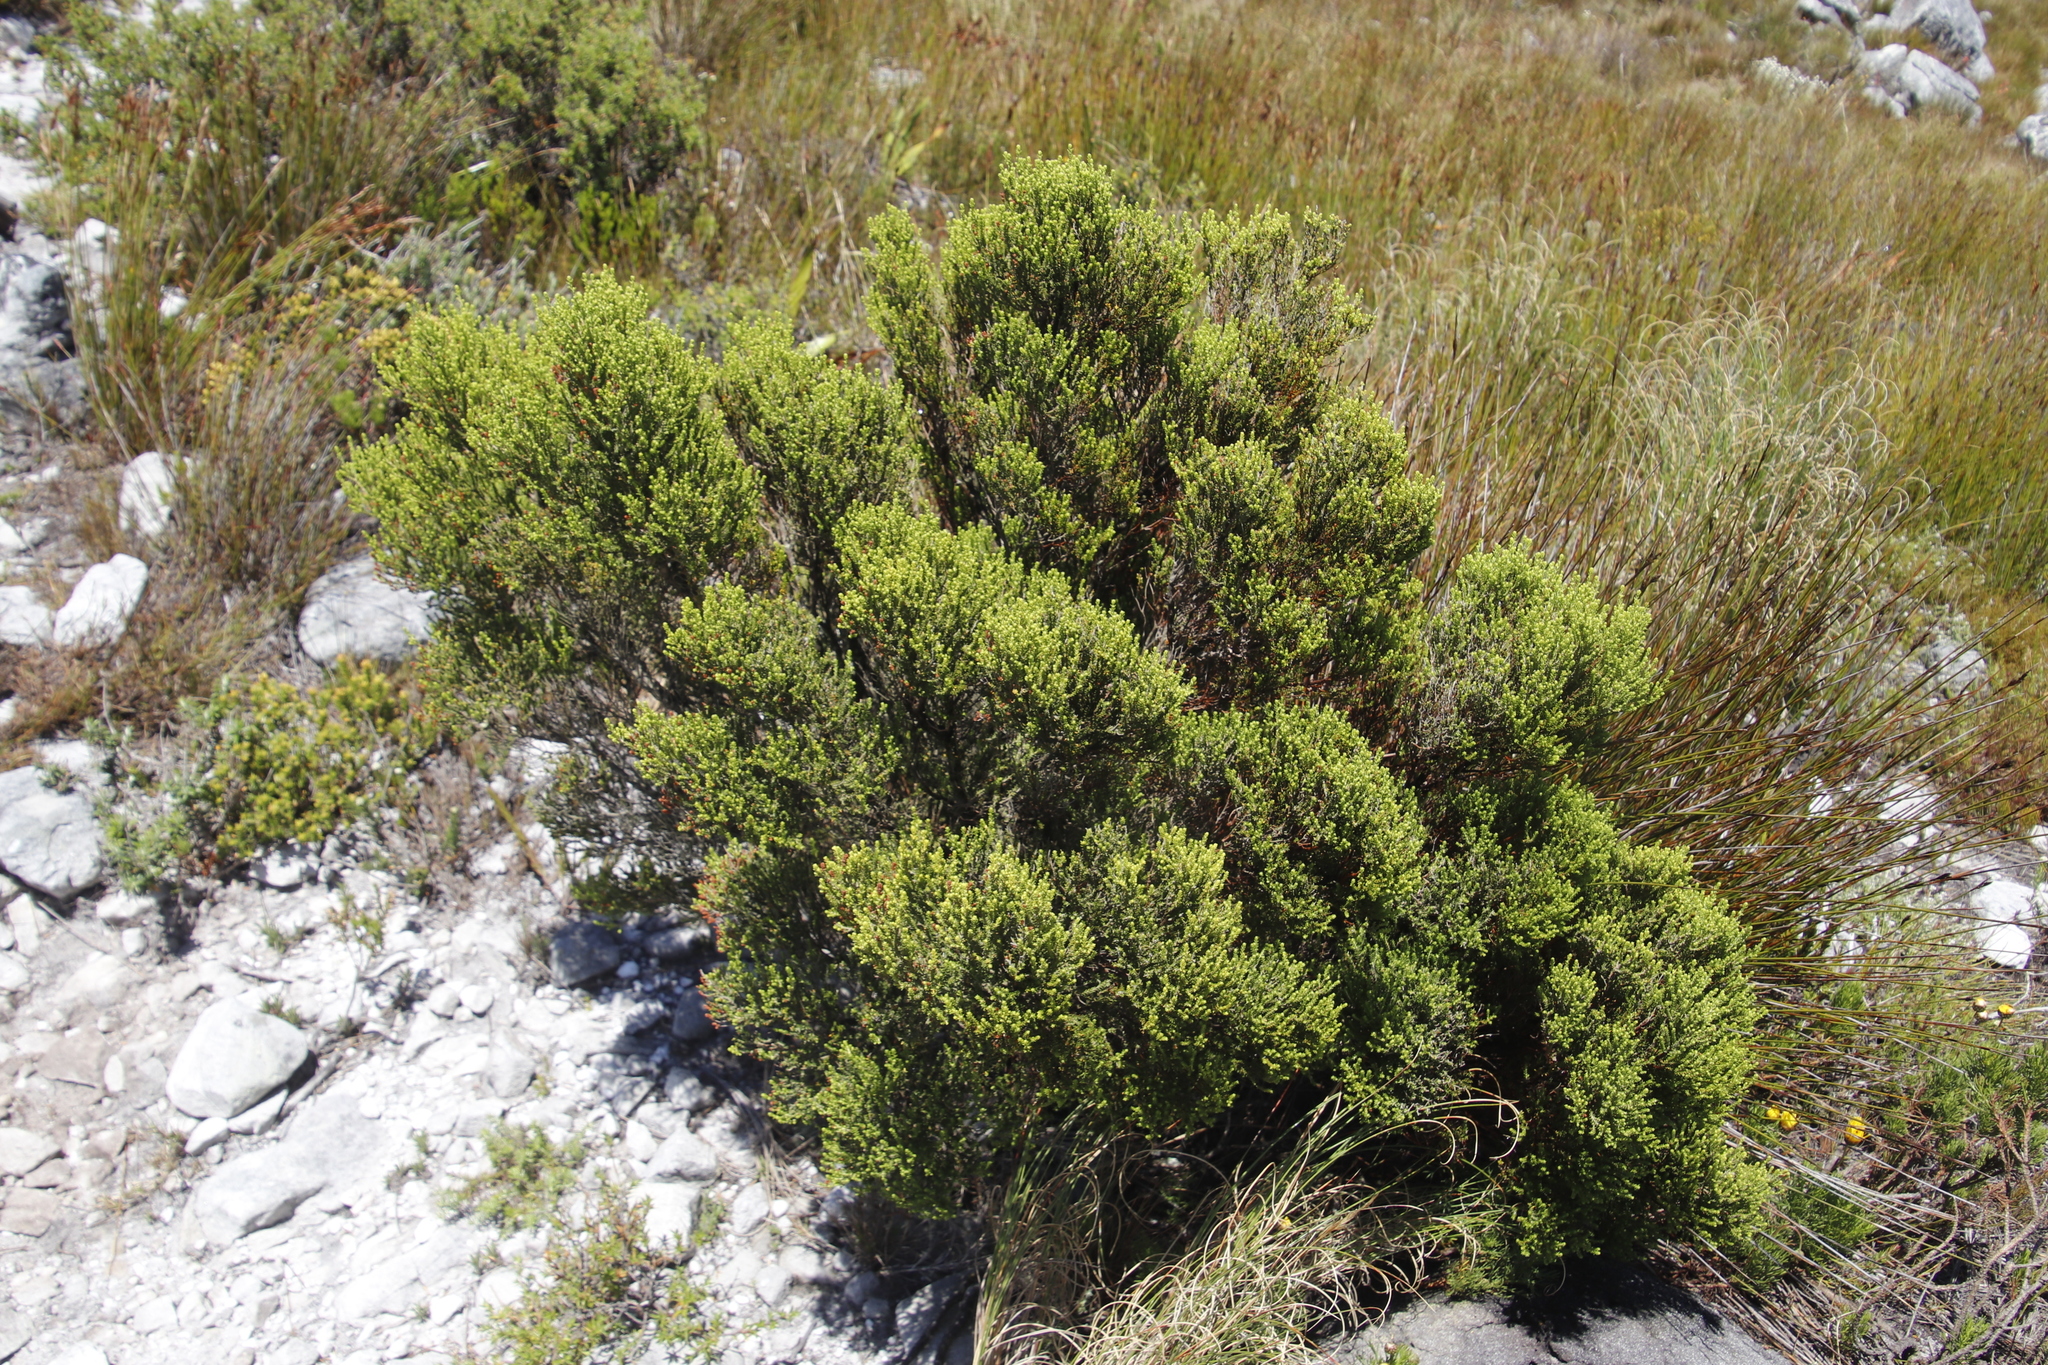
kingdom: Plantae
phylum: Tracheophyta
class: Magnoliopsida
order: Ericales
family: Ericaceae
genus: Erica
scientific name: Erica tristis
